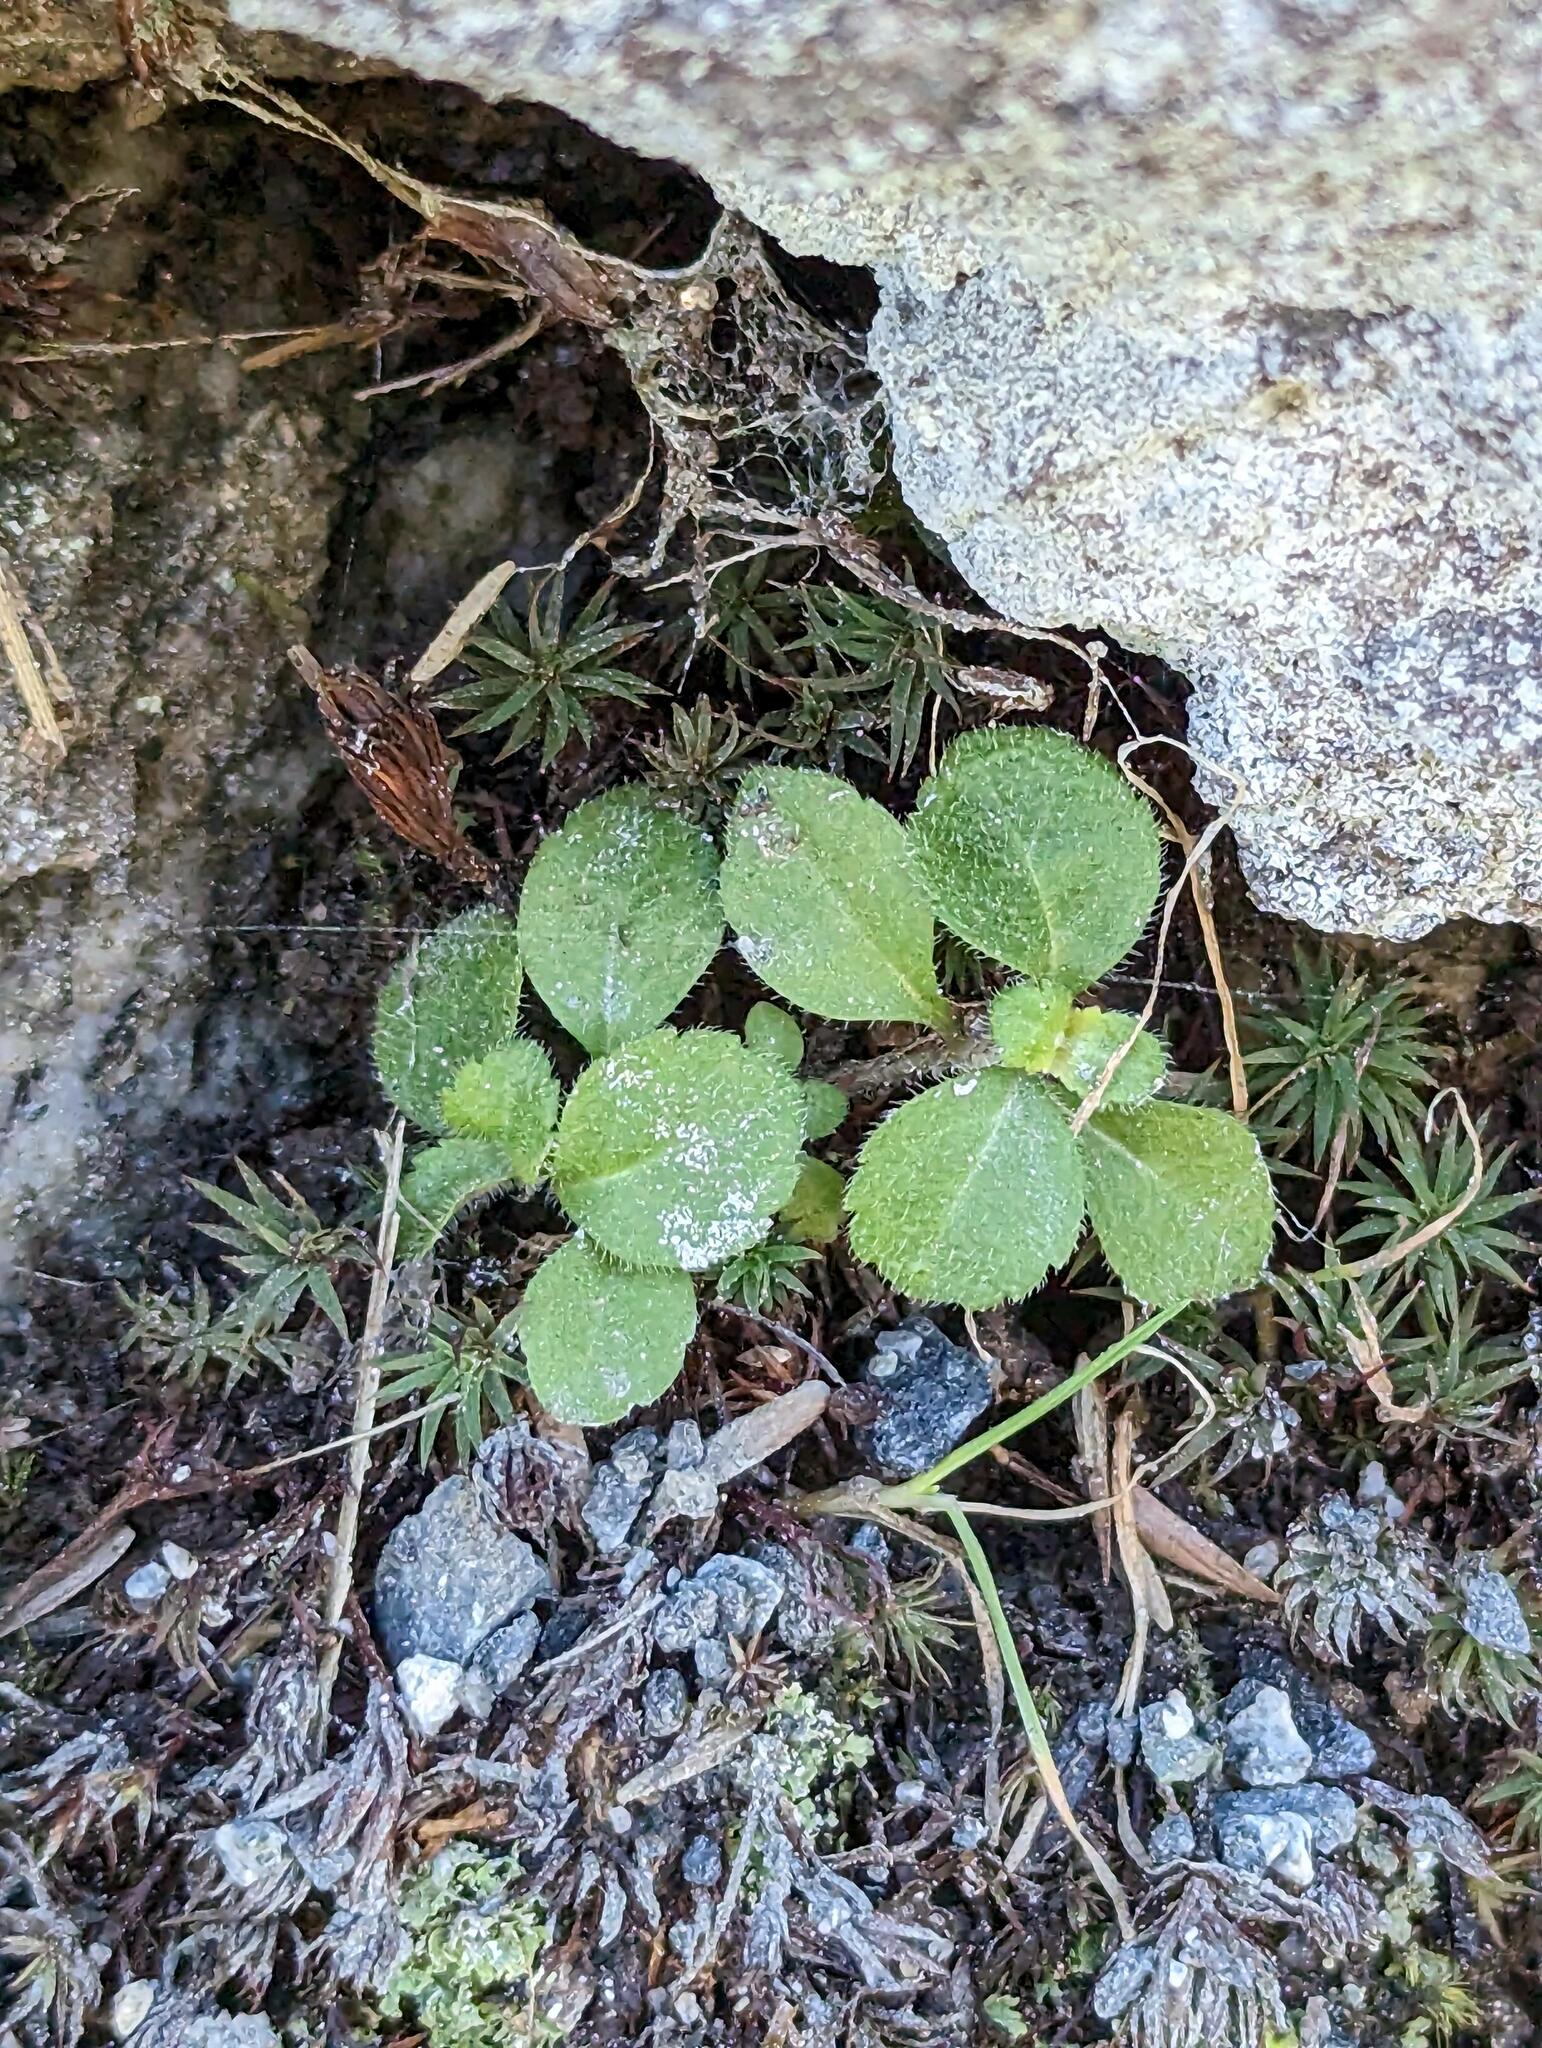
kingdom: Plantae
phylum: Tracheophyta
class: Magnoliopsida
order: Lamiales
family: Plantaginaceae
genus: Veronica
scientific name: Veronica officinalis
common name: Common speedwell
